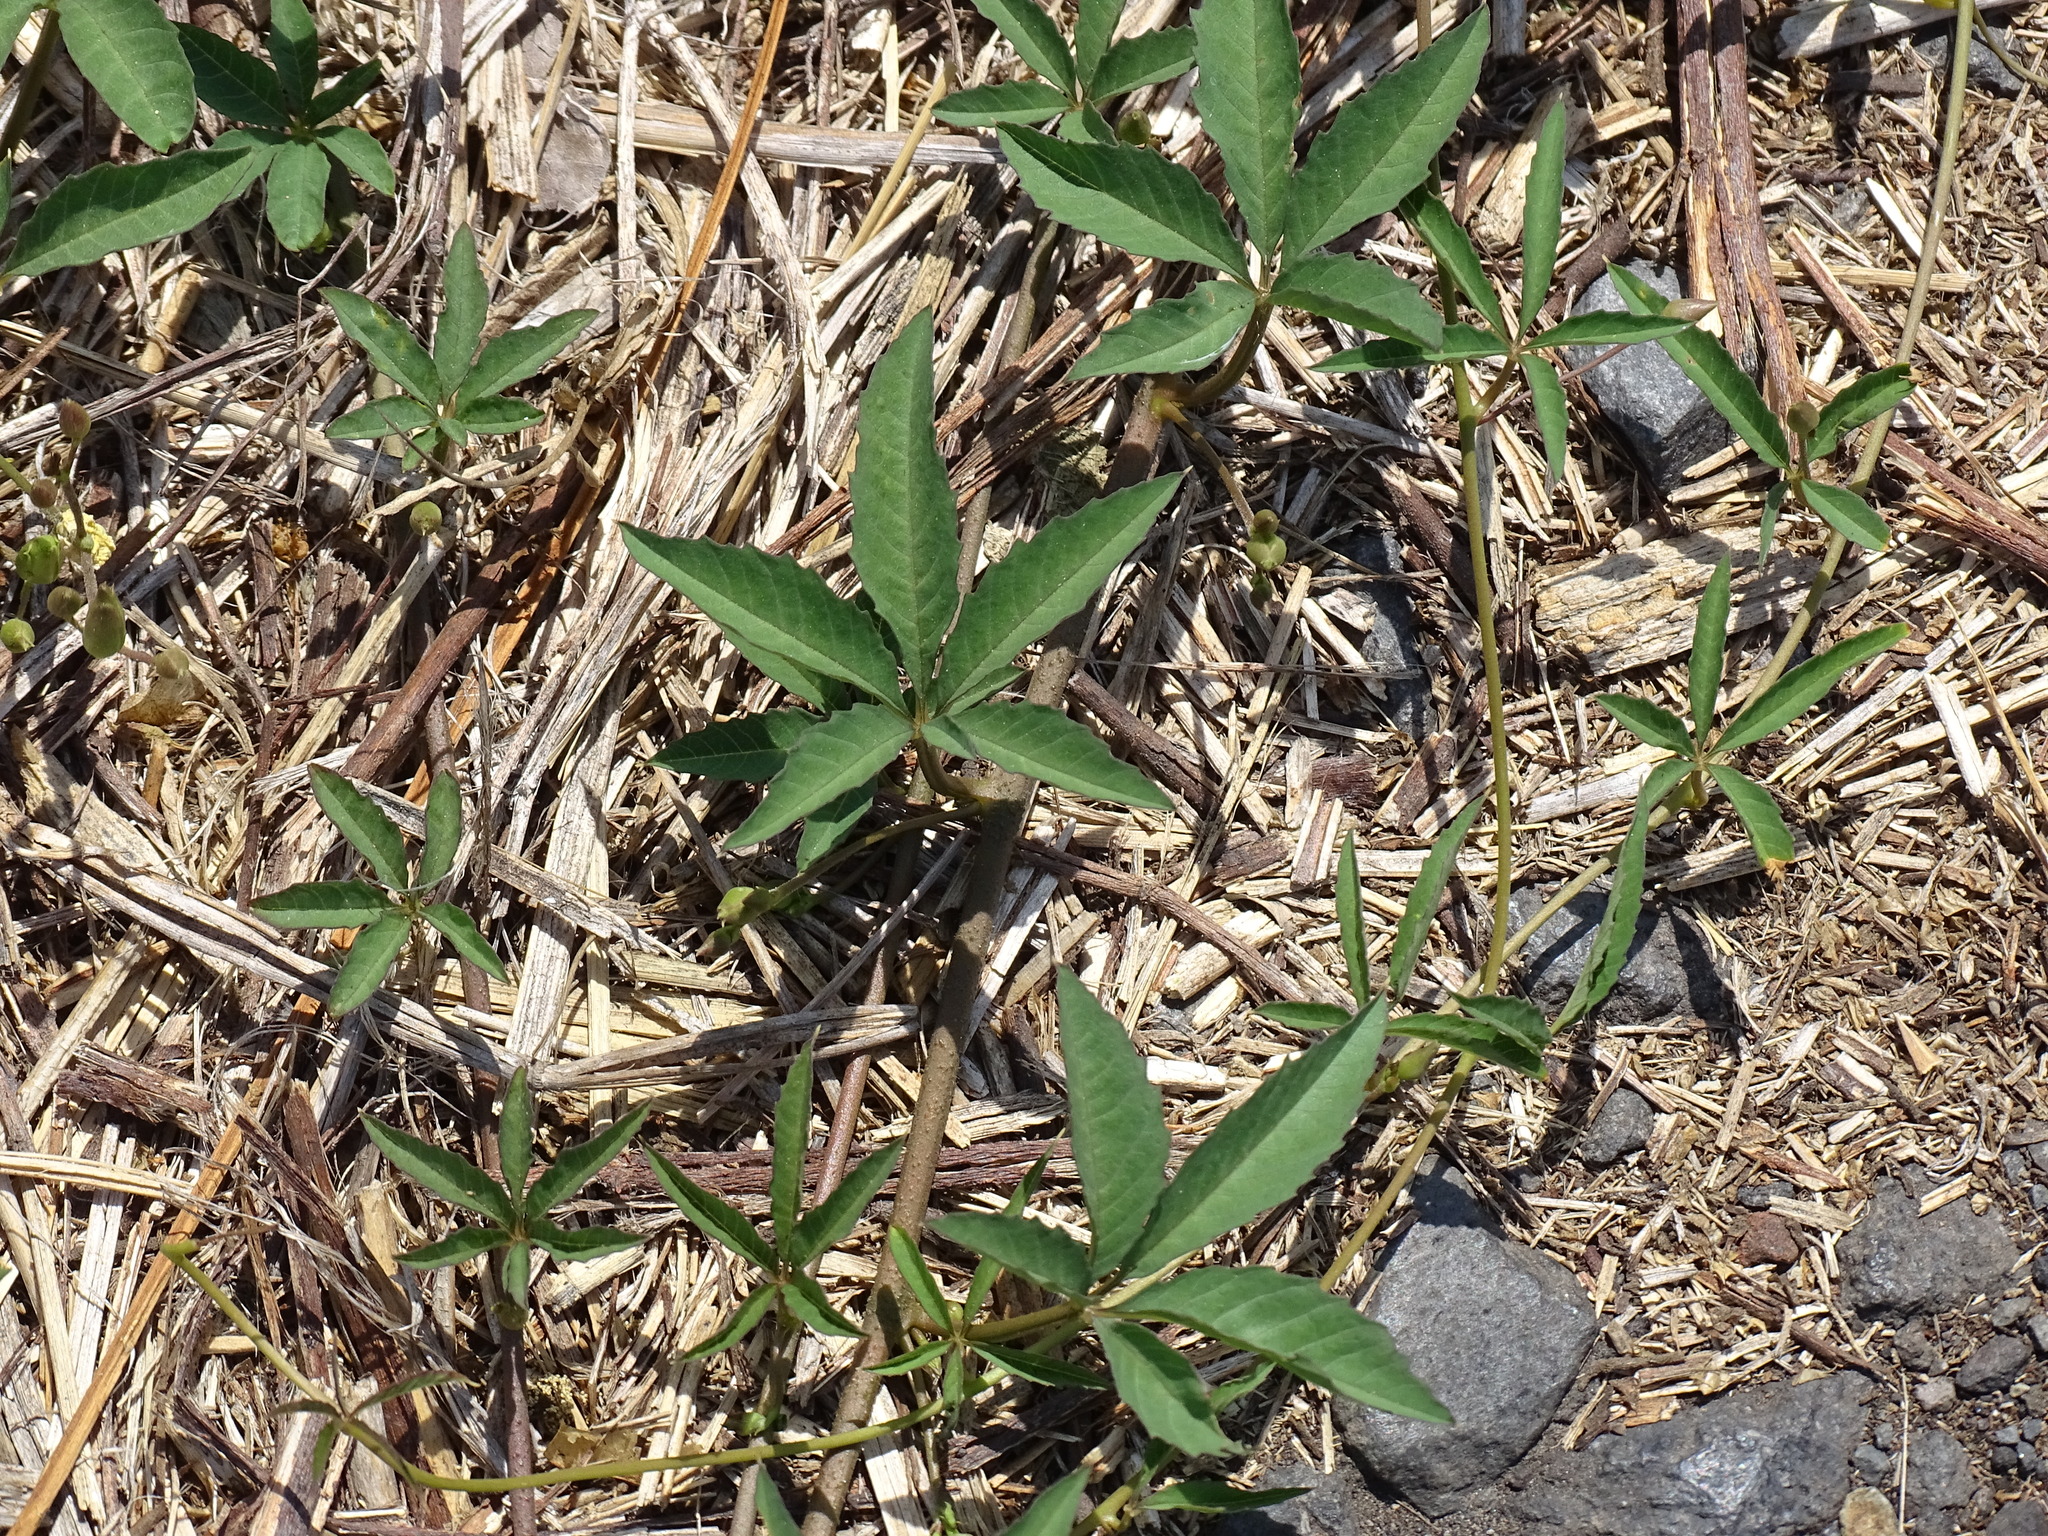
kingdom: Plantae
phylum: Tracheophyta
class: Magnoliopsida
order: Solanales
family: Convolvulaceae
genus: Distimake
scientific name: Distimake quinquefolius
